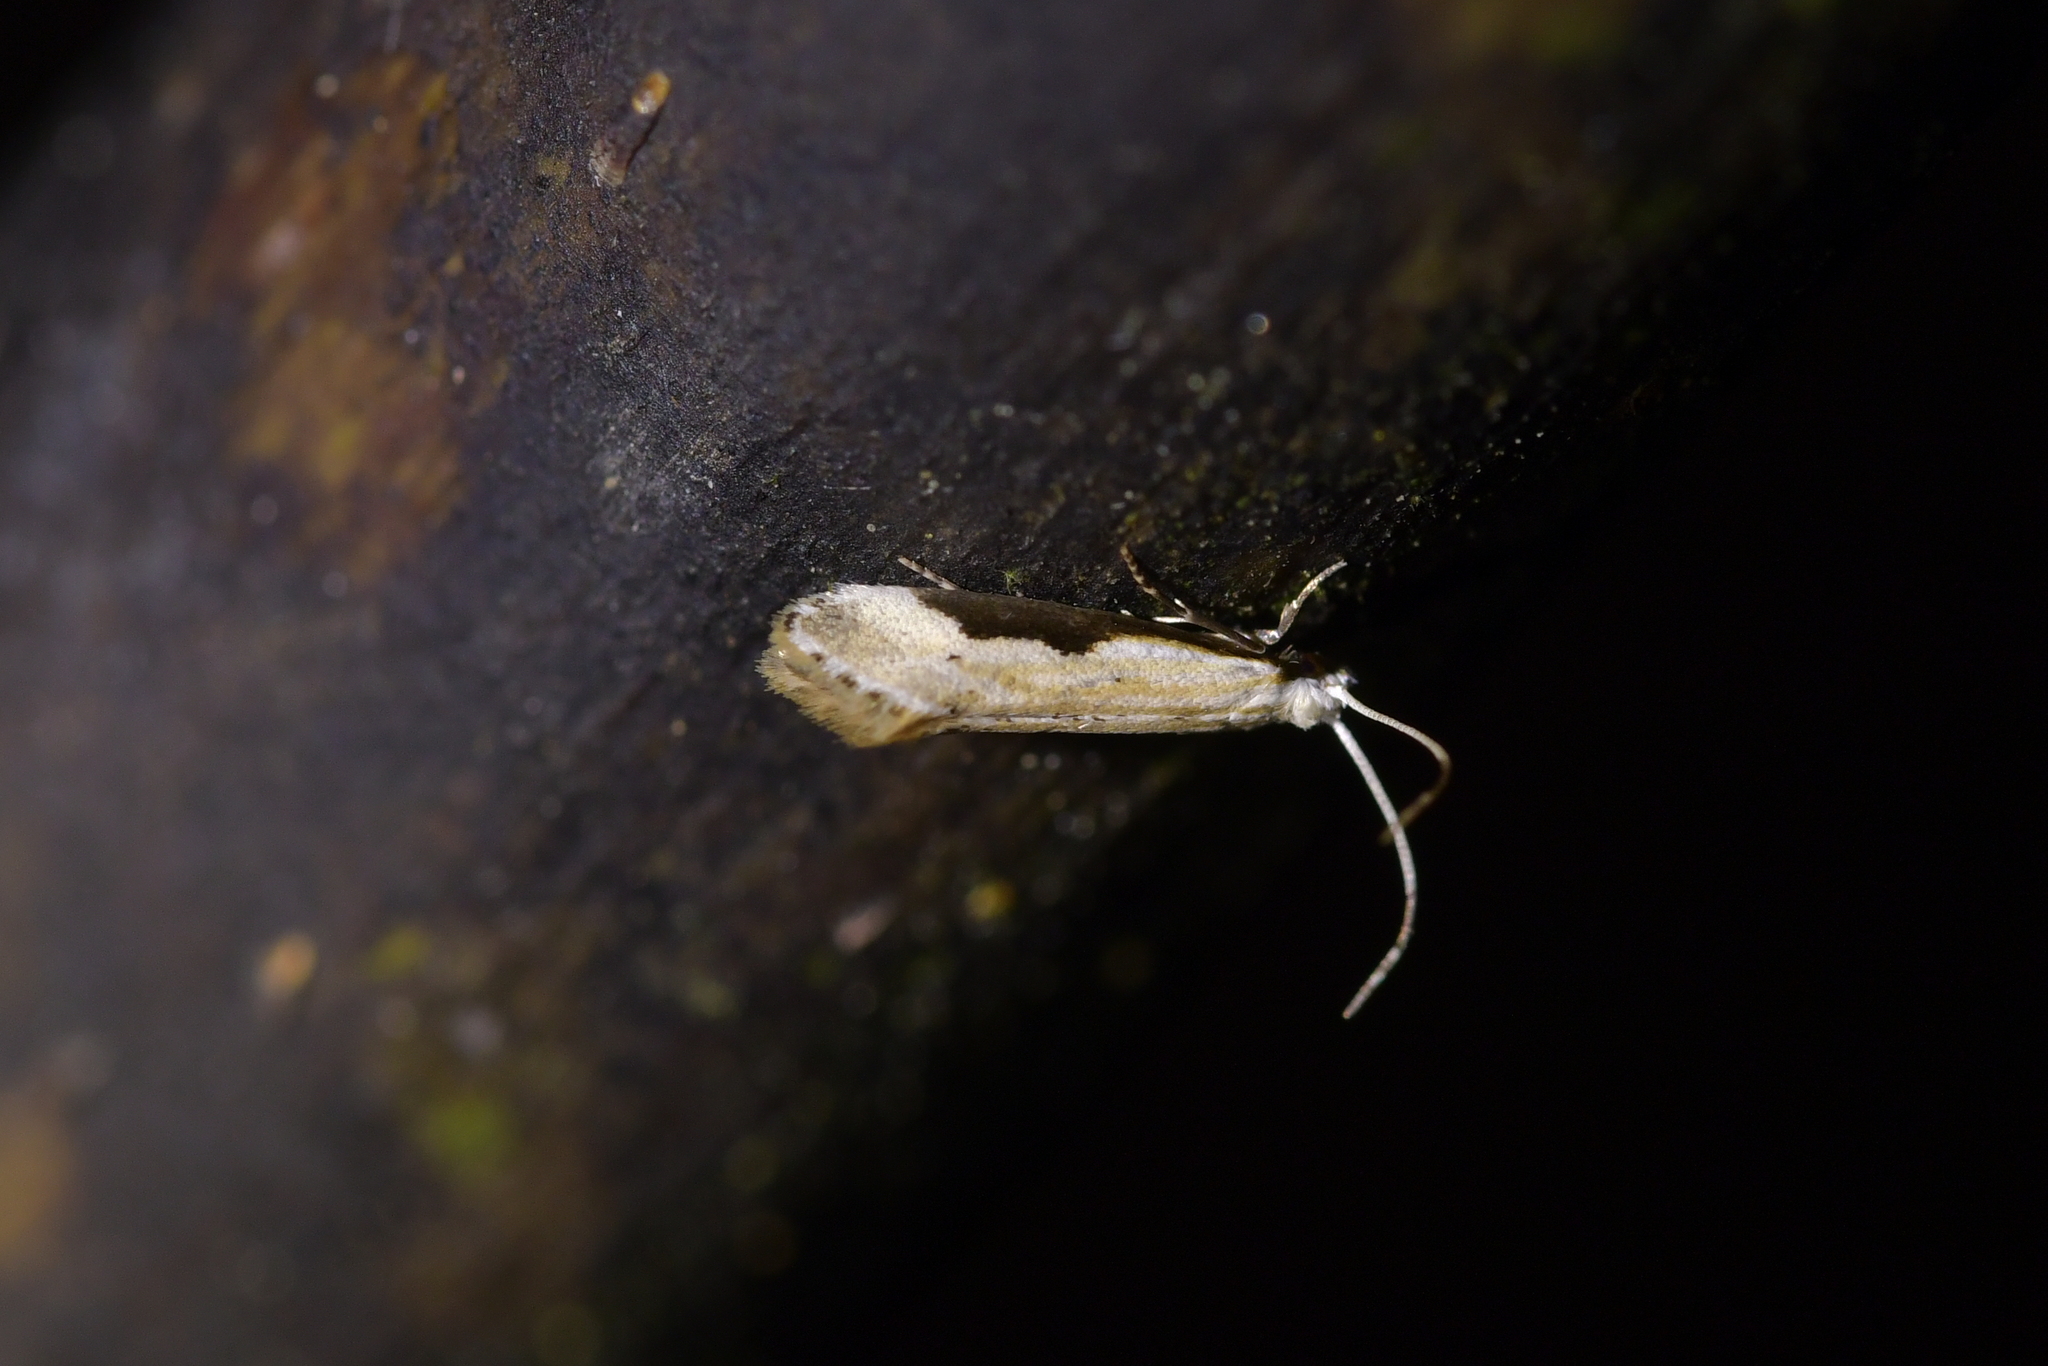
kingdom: Animalia
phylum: Arthropoda
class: Insecta
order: Lepidoptera
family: Tineidae
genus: Sagephora
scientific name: Sagephora phortegella
